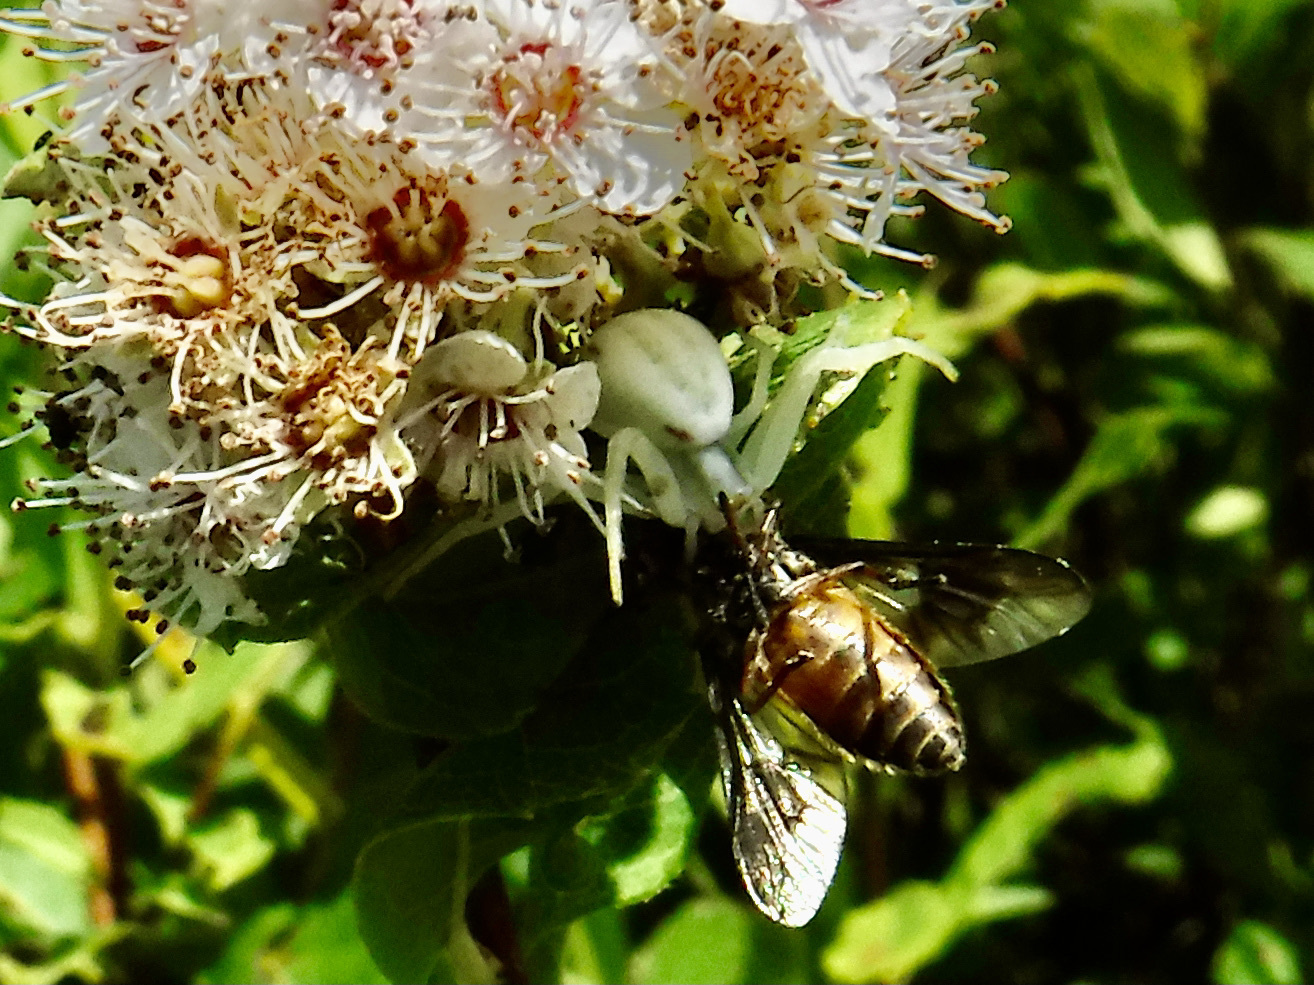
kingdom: Animalia
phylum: Arthropoda
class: Arachnida
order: Araneae
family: Thomisidae
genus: Misumena
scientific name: Misumena vatia
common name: Goldenrod crab spider
